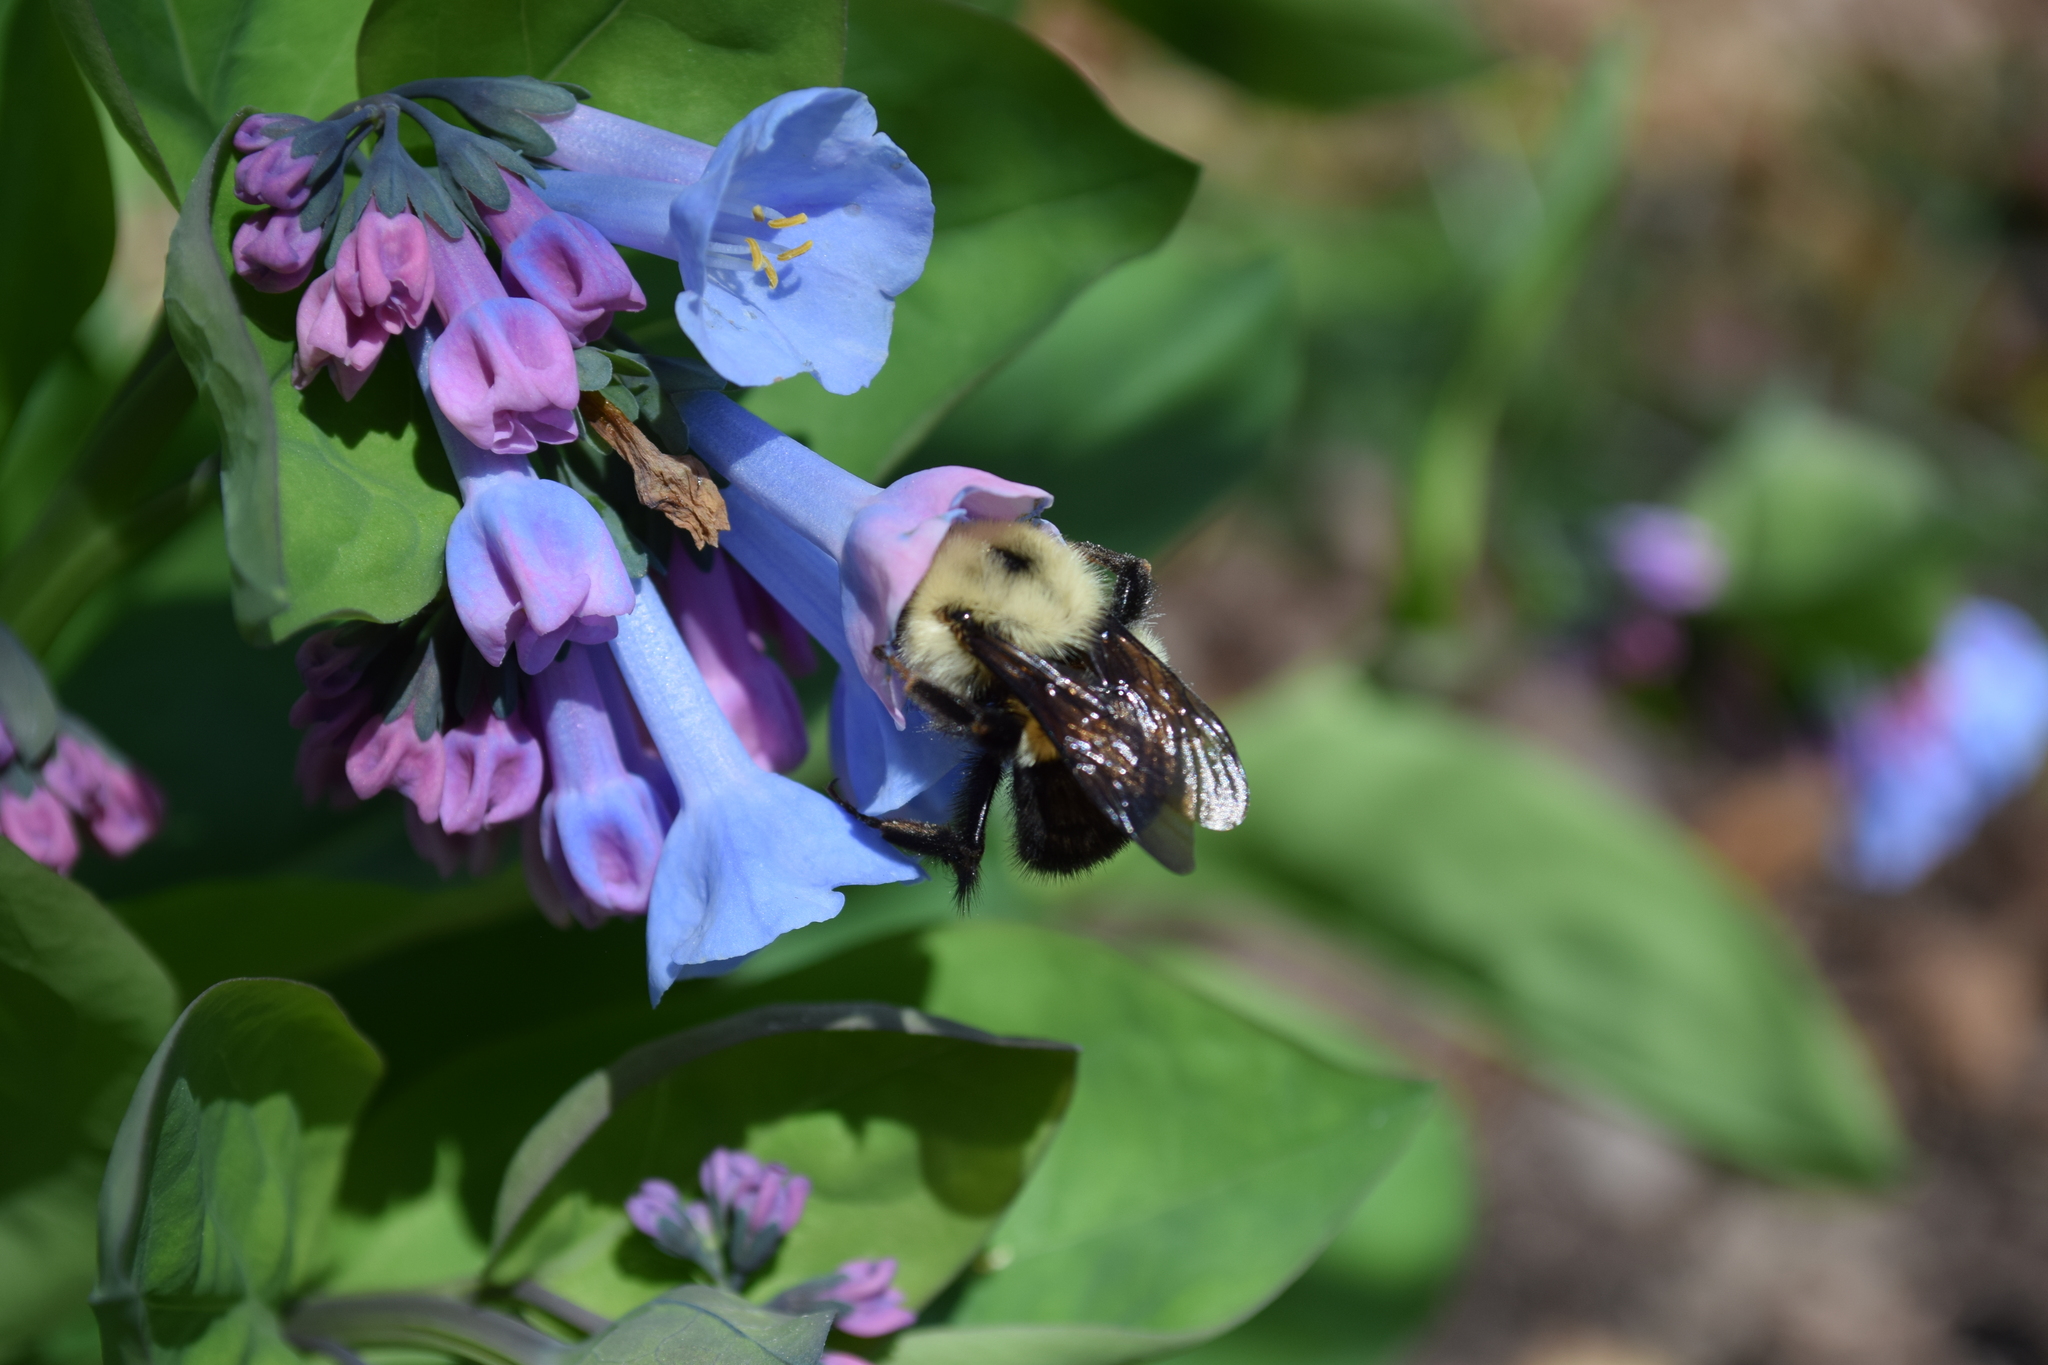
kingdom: Animalia
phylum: Arthropoda
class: Insecta
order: Hymenoptera
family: Apidae
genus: Bombus
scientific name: Bombus bimaculatus
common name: Two-spotted bumble bee
